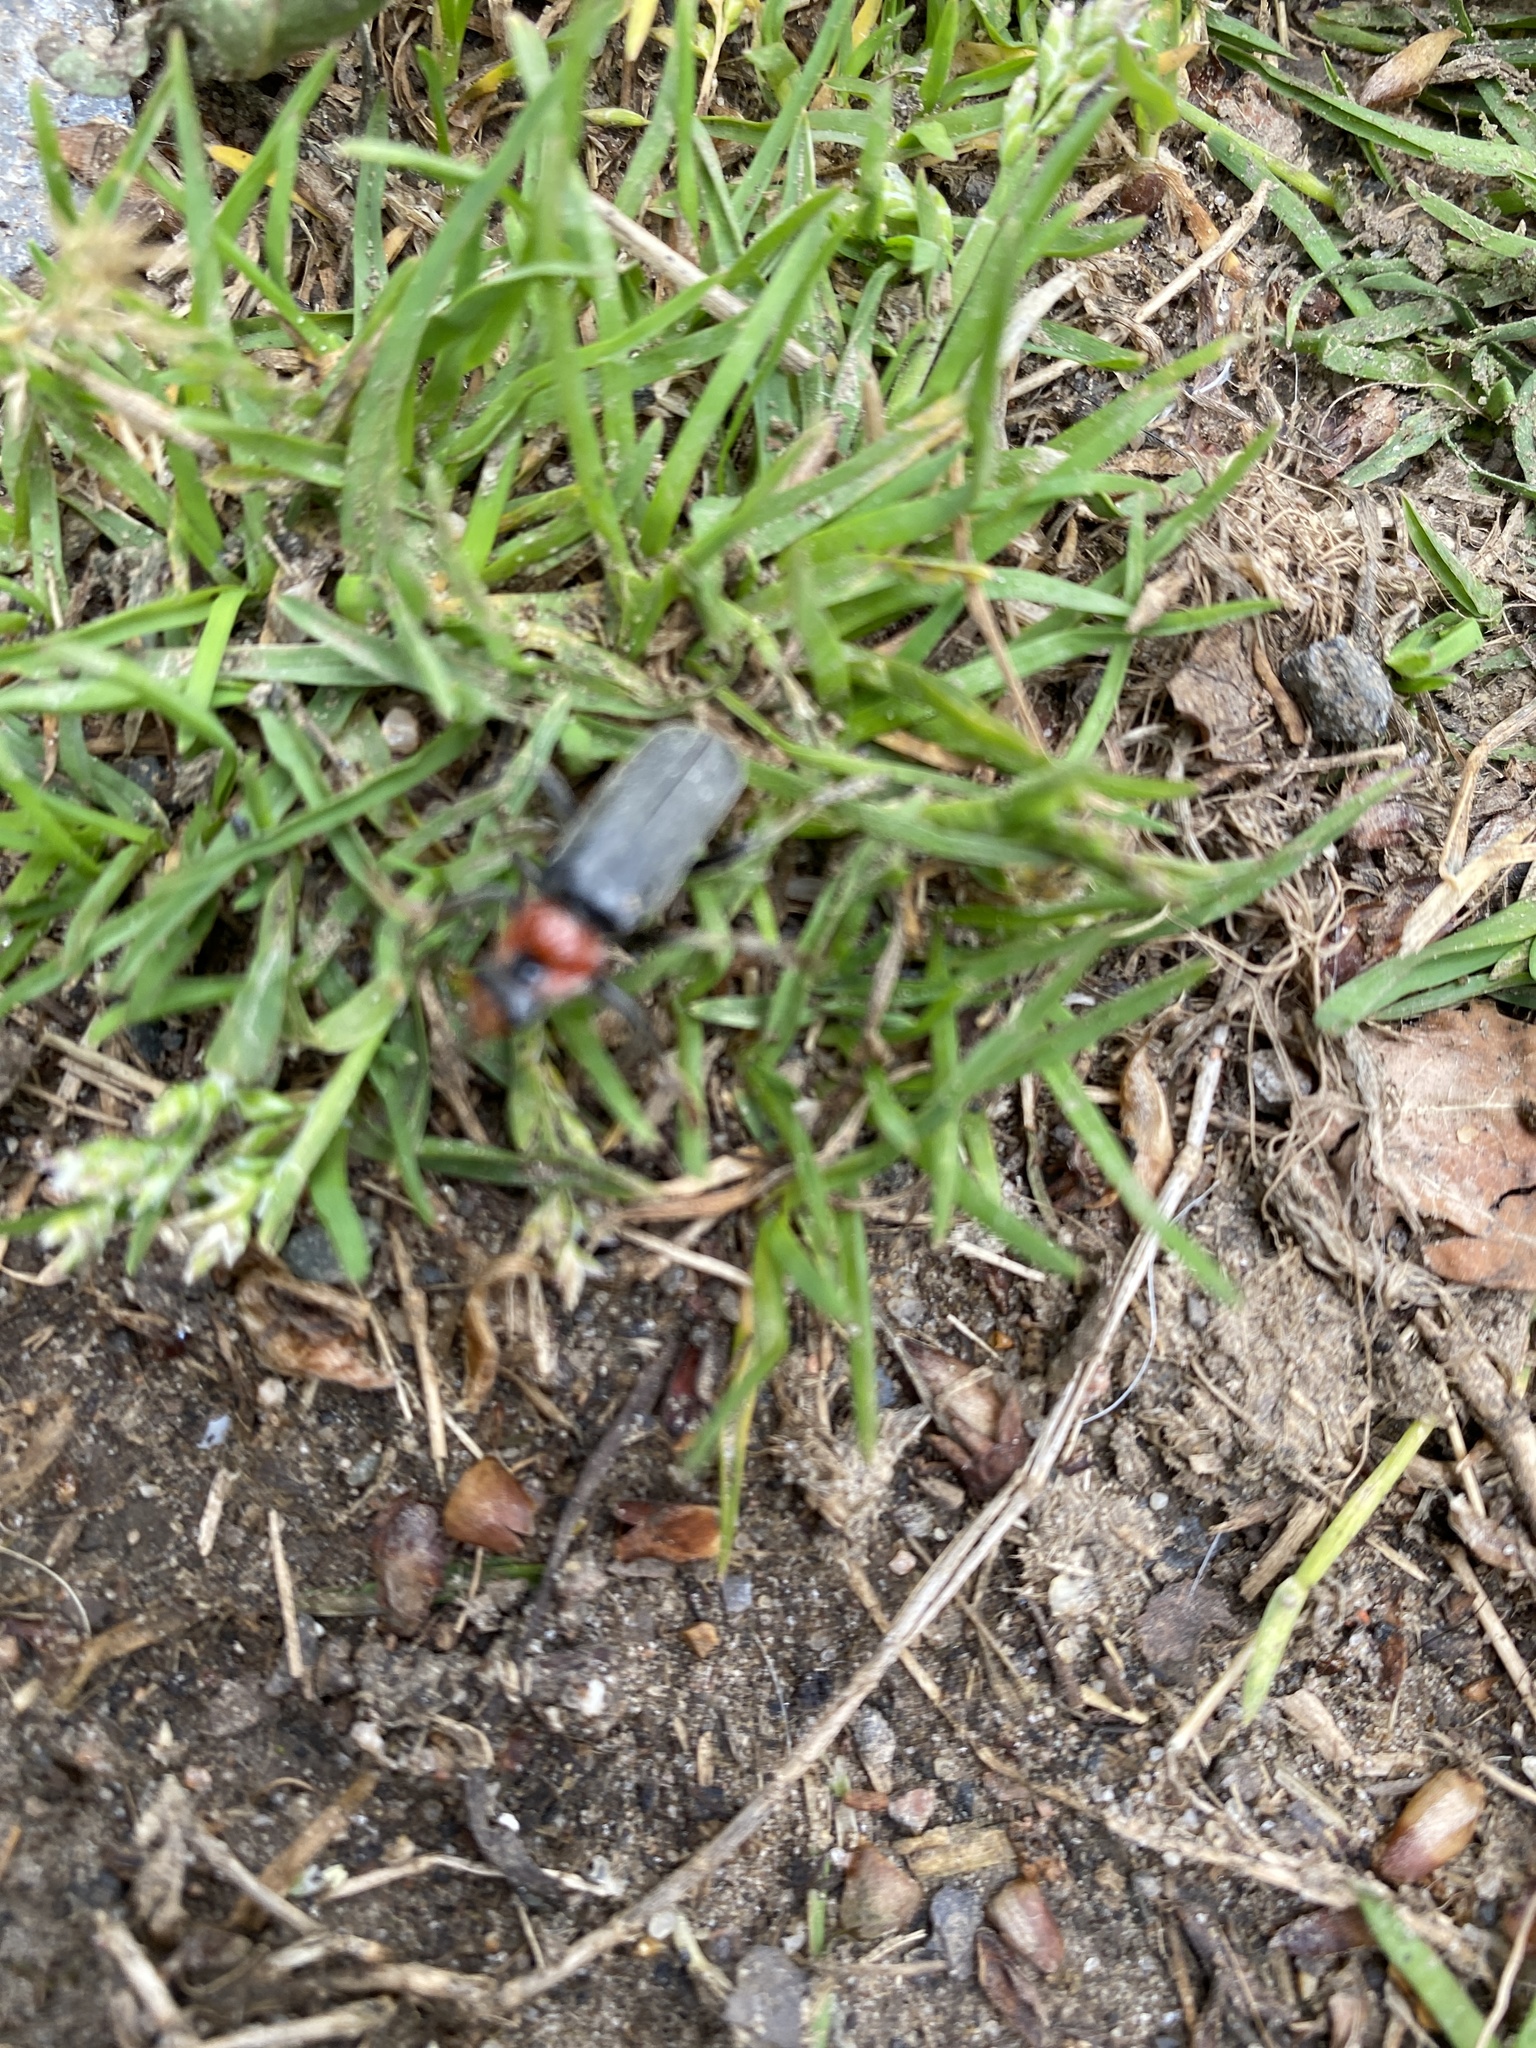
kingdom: Animalia
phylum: Arthropoda
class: Insecta
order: Coleoptera
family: Cantharidae
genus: Cantharis
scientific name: Cantharis fusca
